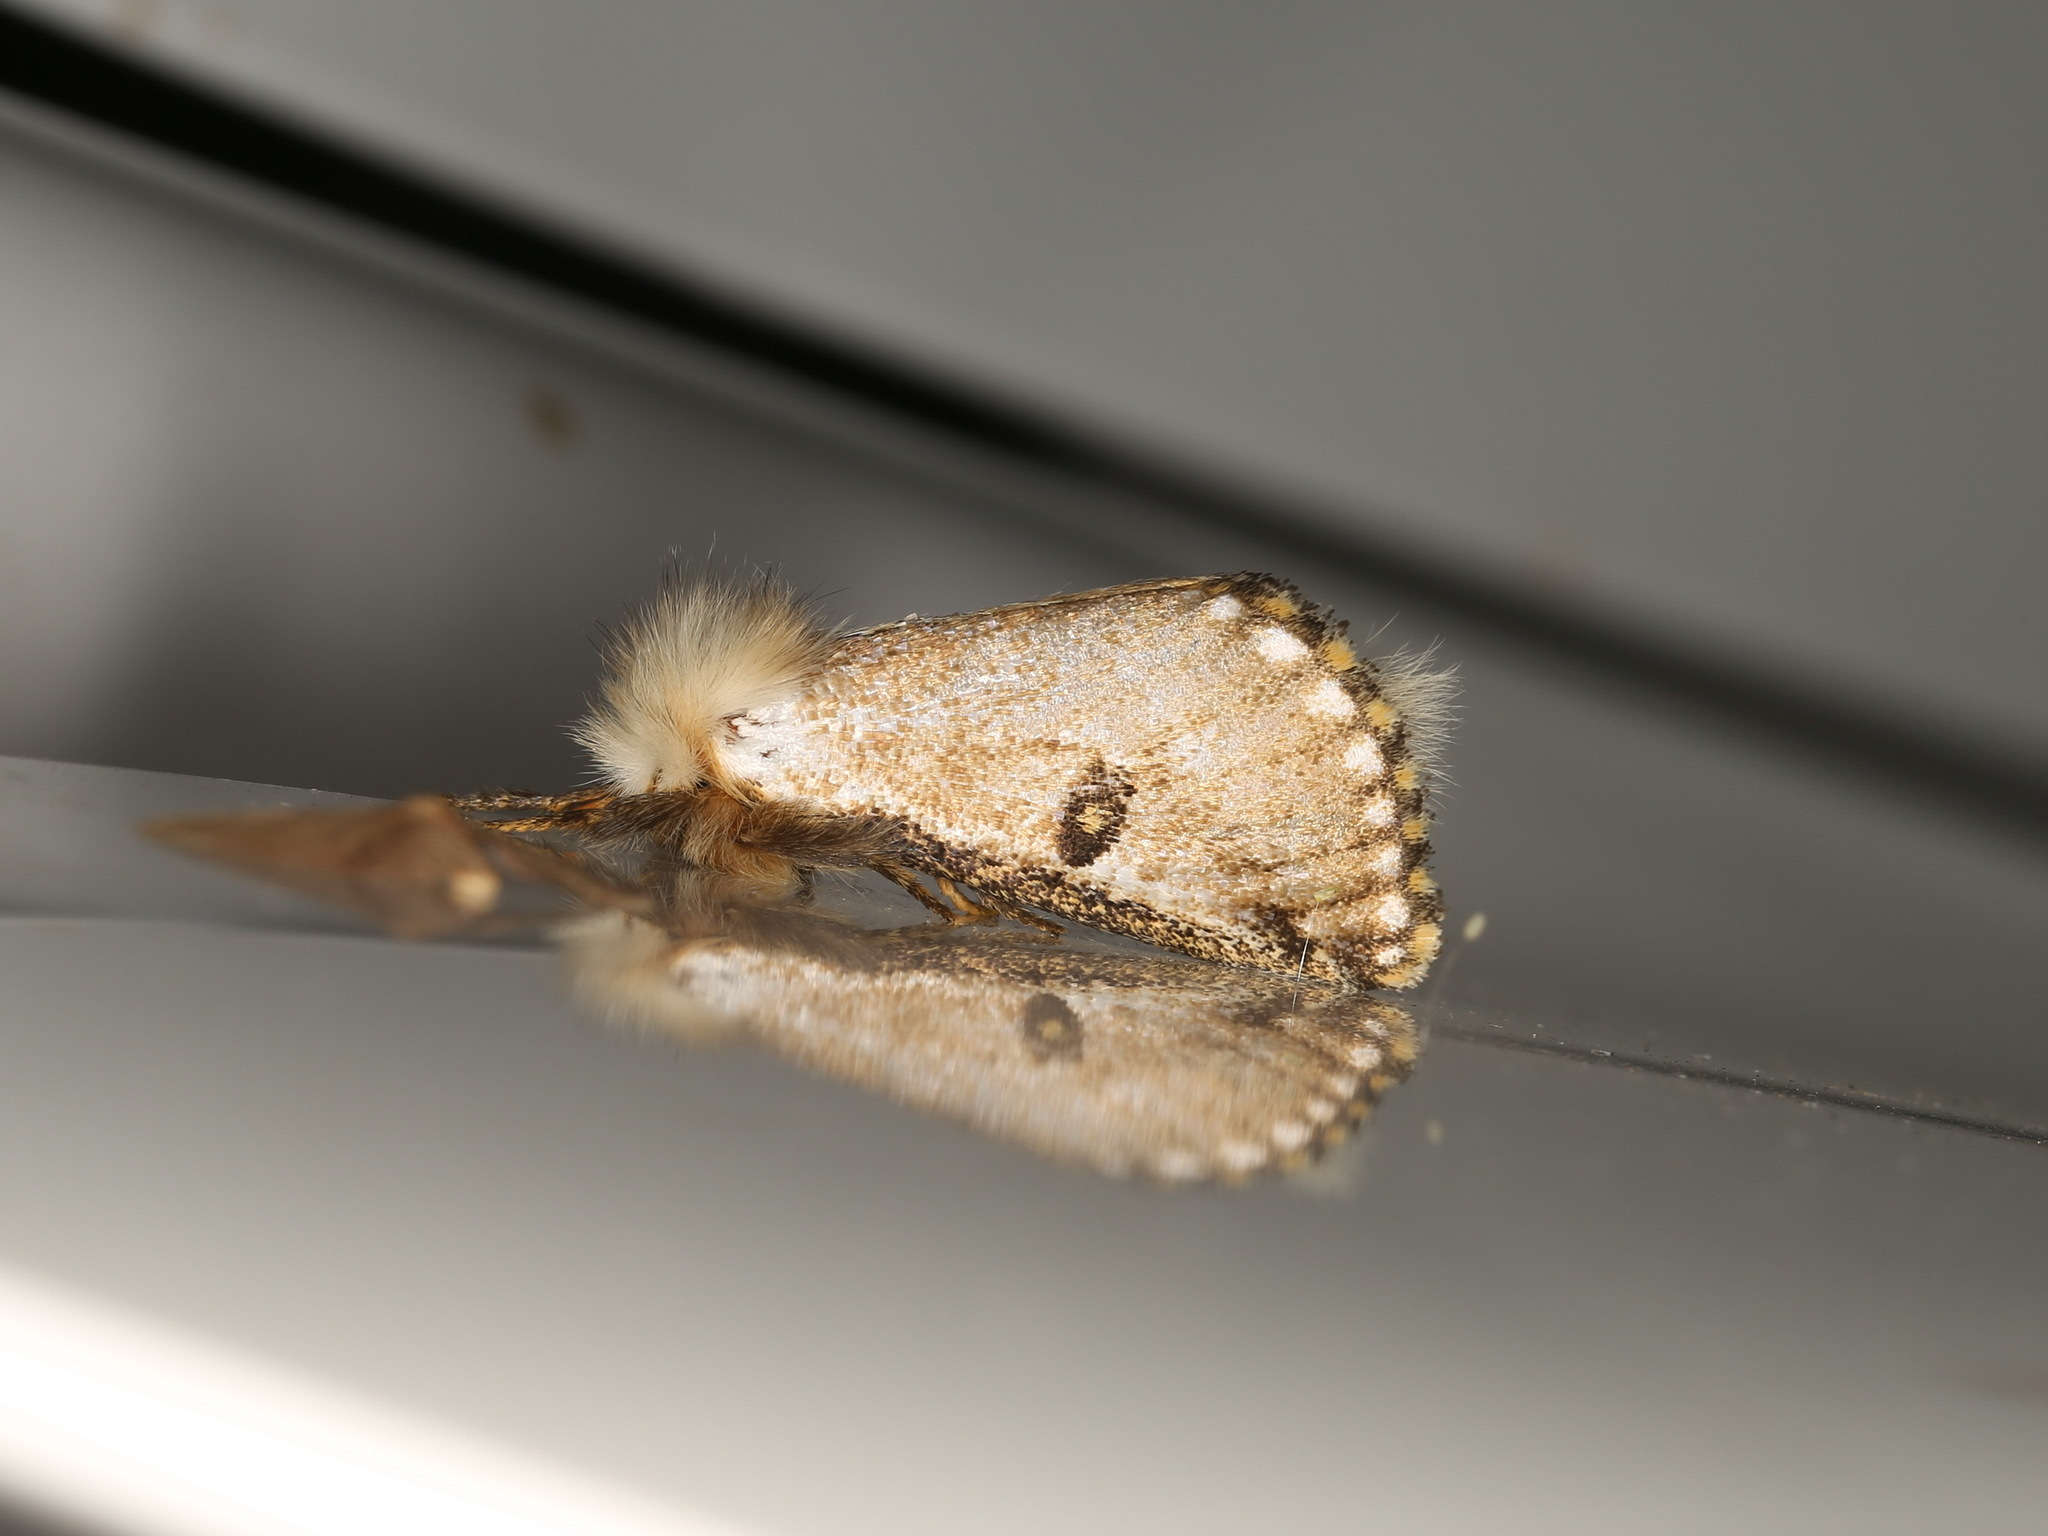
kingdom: Animalia
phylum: Arthropoda
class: Insecta
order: Lepidoptera
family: Notodontidae
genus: Epicoma
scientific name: Epicoma melanosticta
